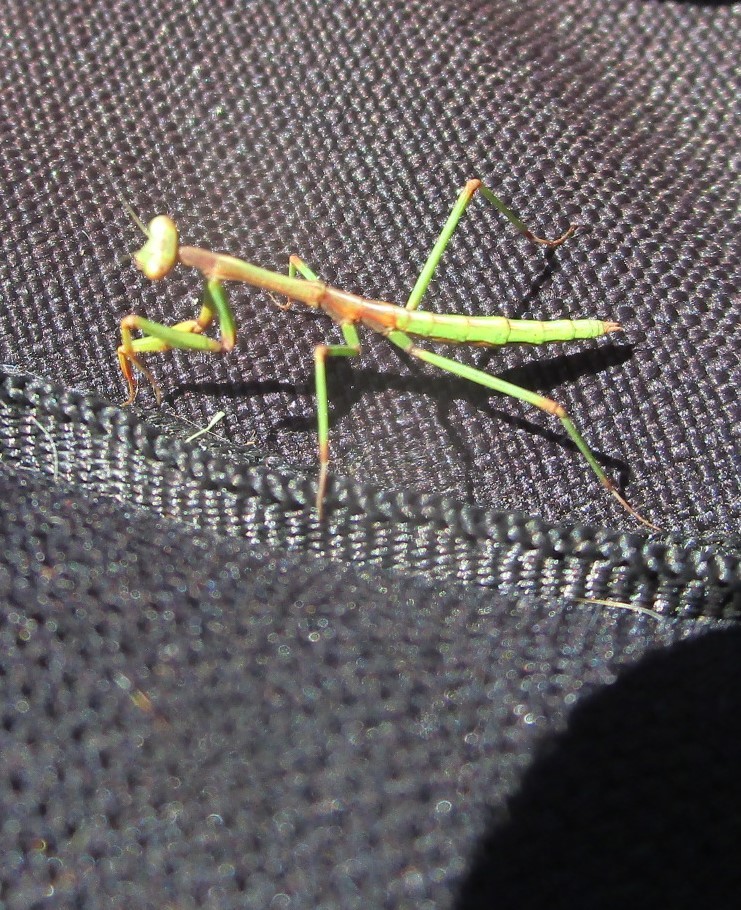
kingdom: Animalia
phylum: Arthropoda
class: Insecta
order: Mantodea
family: Mantidae
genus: Archimantis
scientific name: Archimantis sobrina
